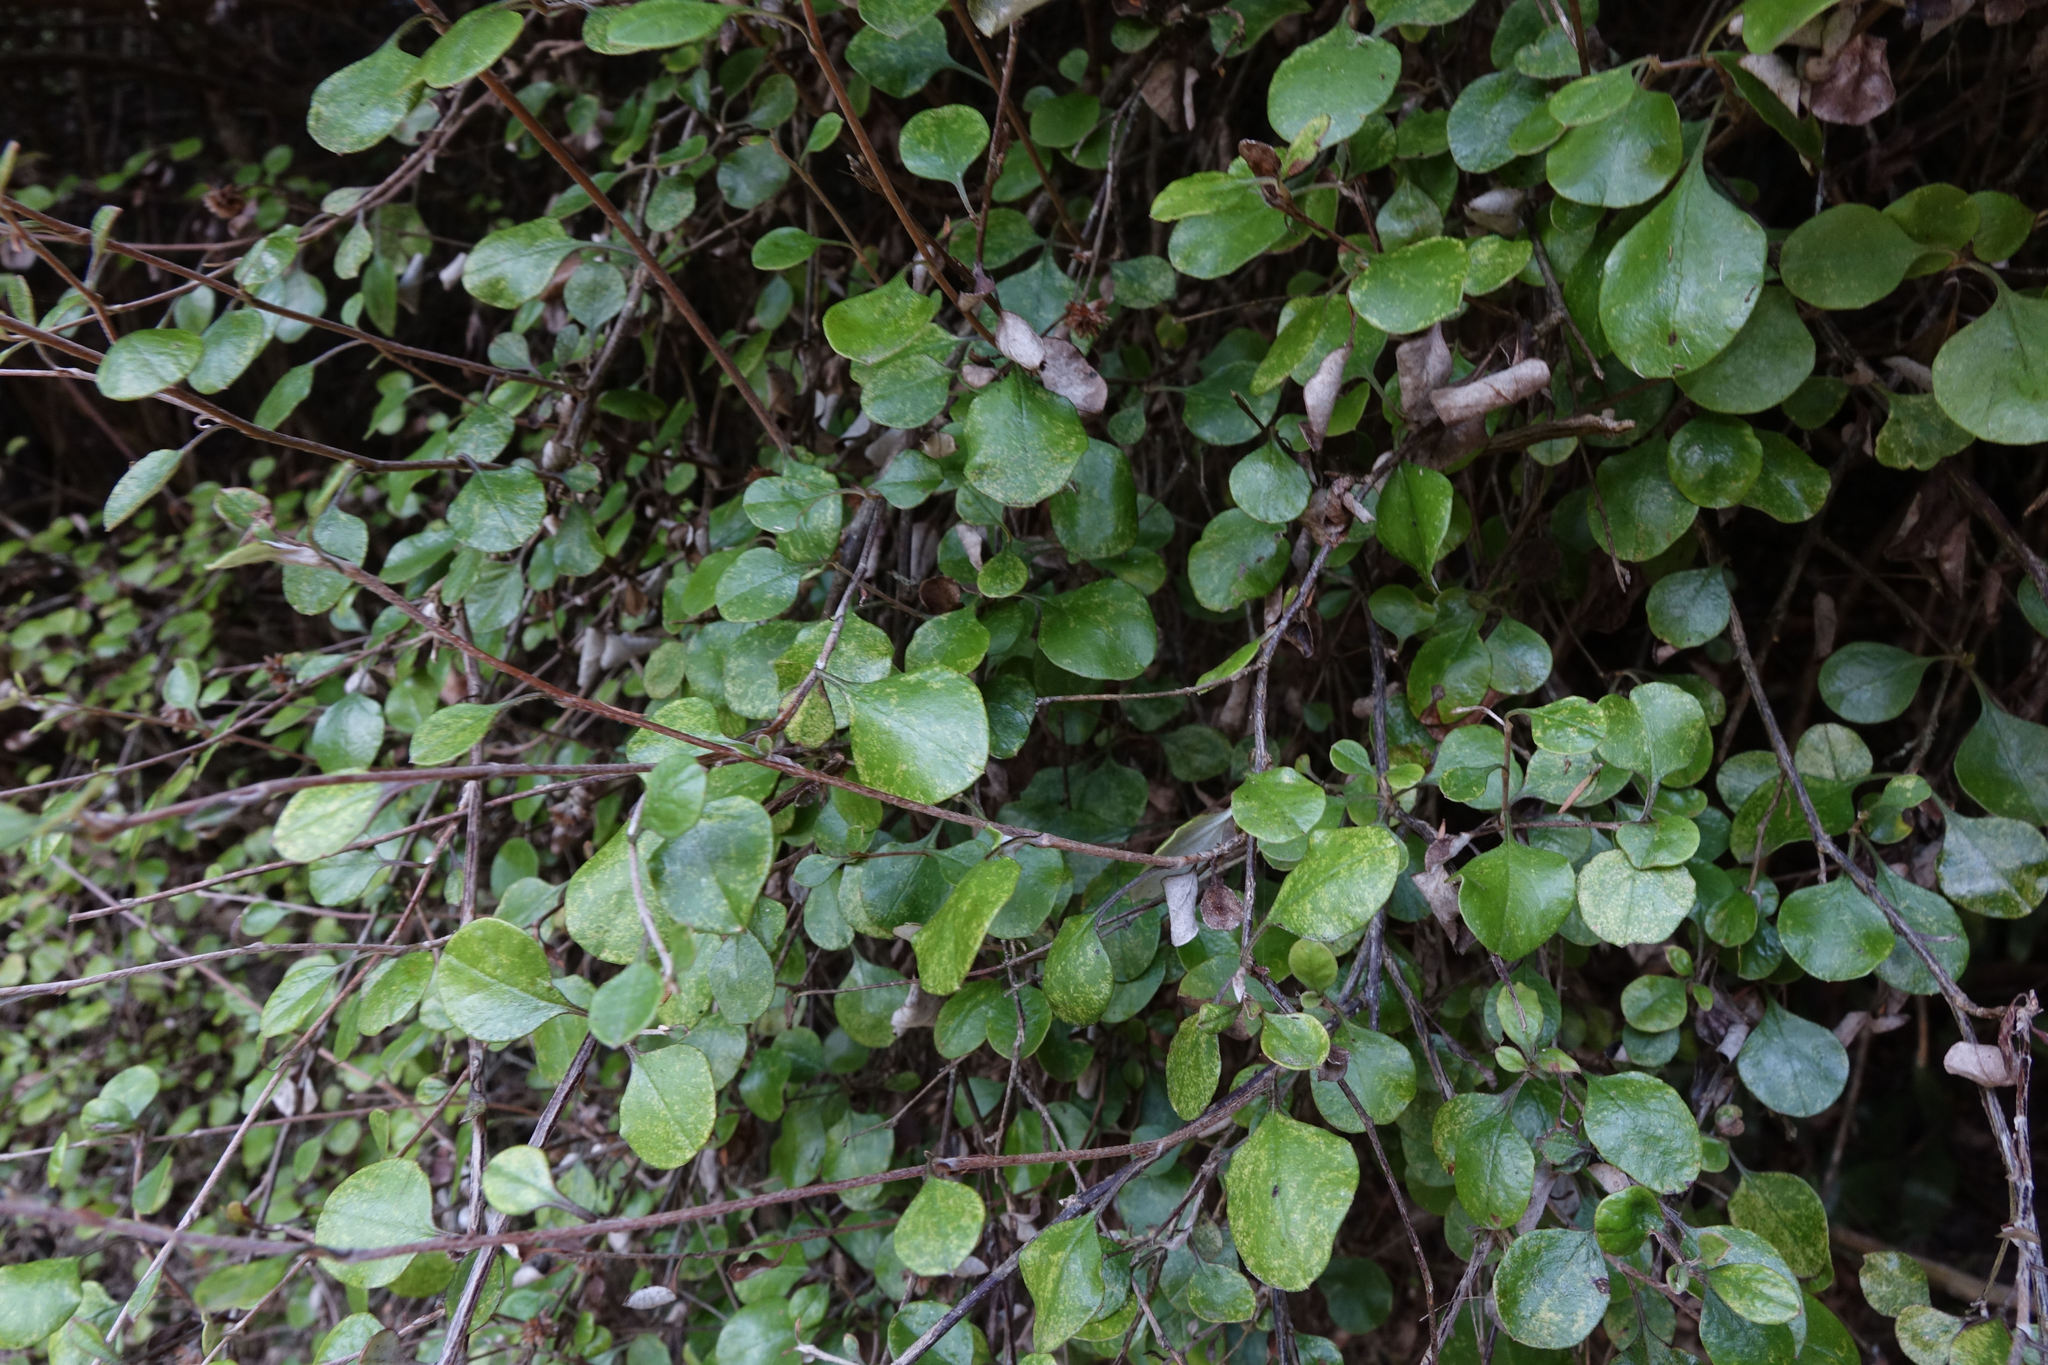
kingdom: Plantae
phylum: Tracheophyta
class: Magnoliopsida
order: Asterales
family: Asteraceae
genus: Ozothamnus
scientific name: Ozothamnus glomeratus
